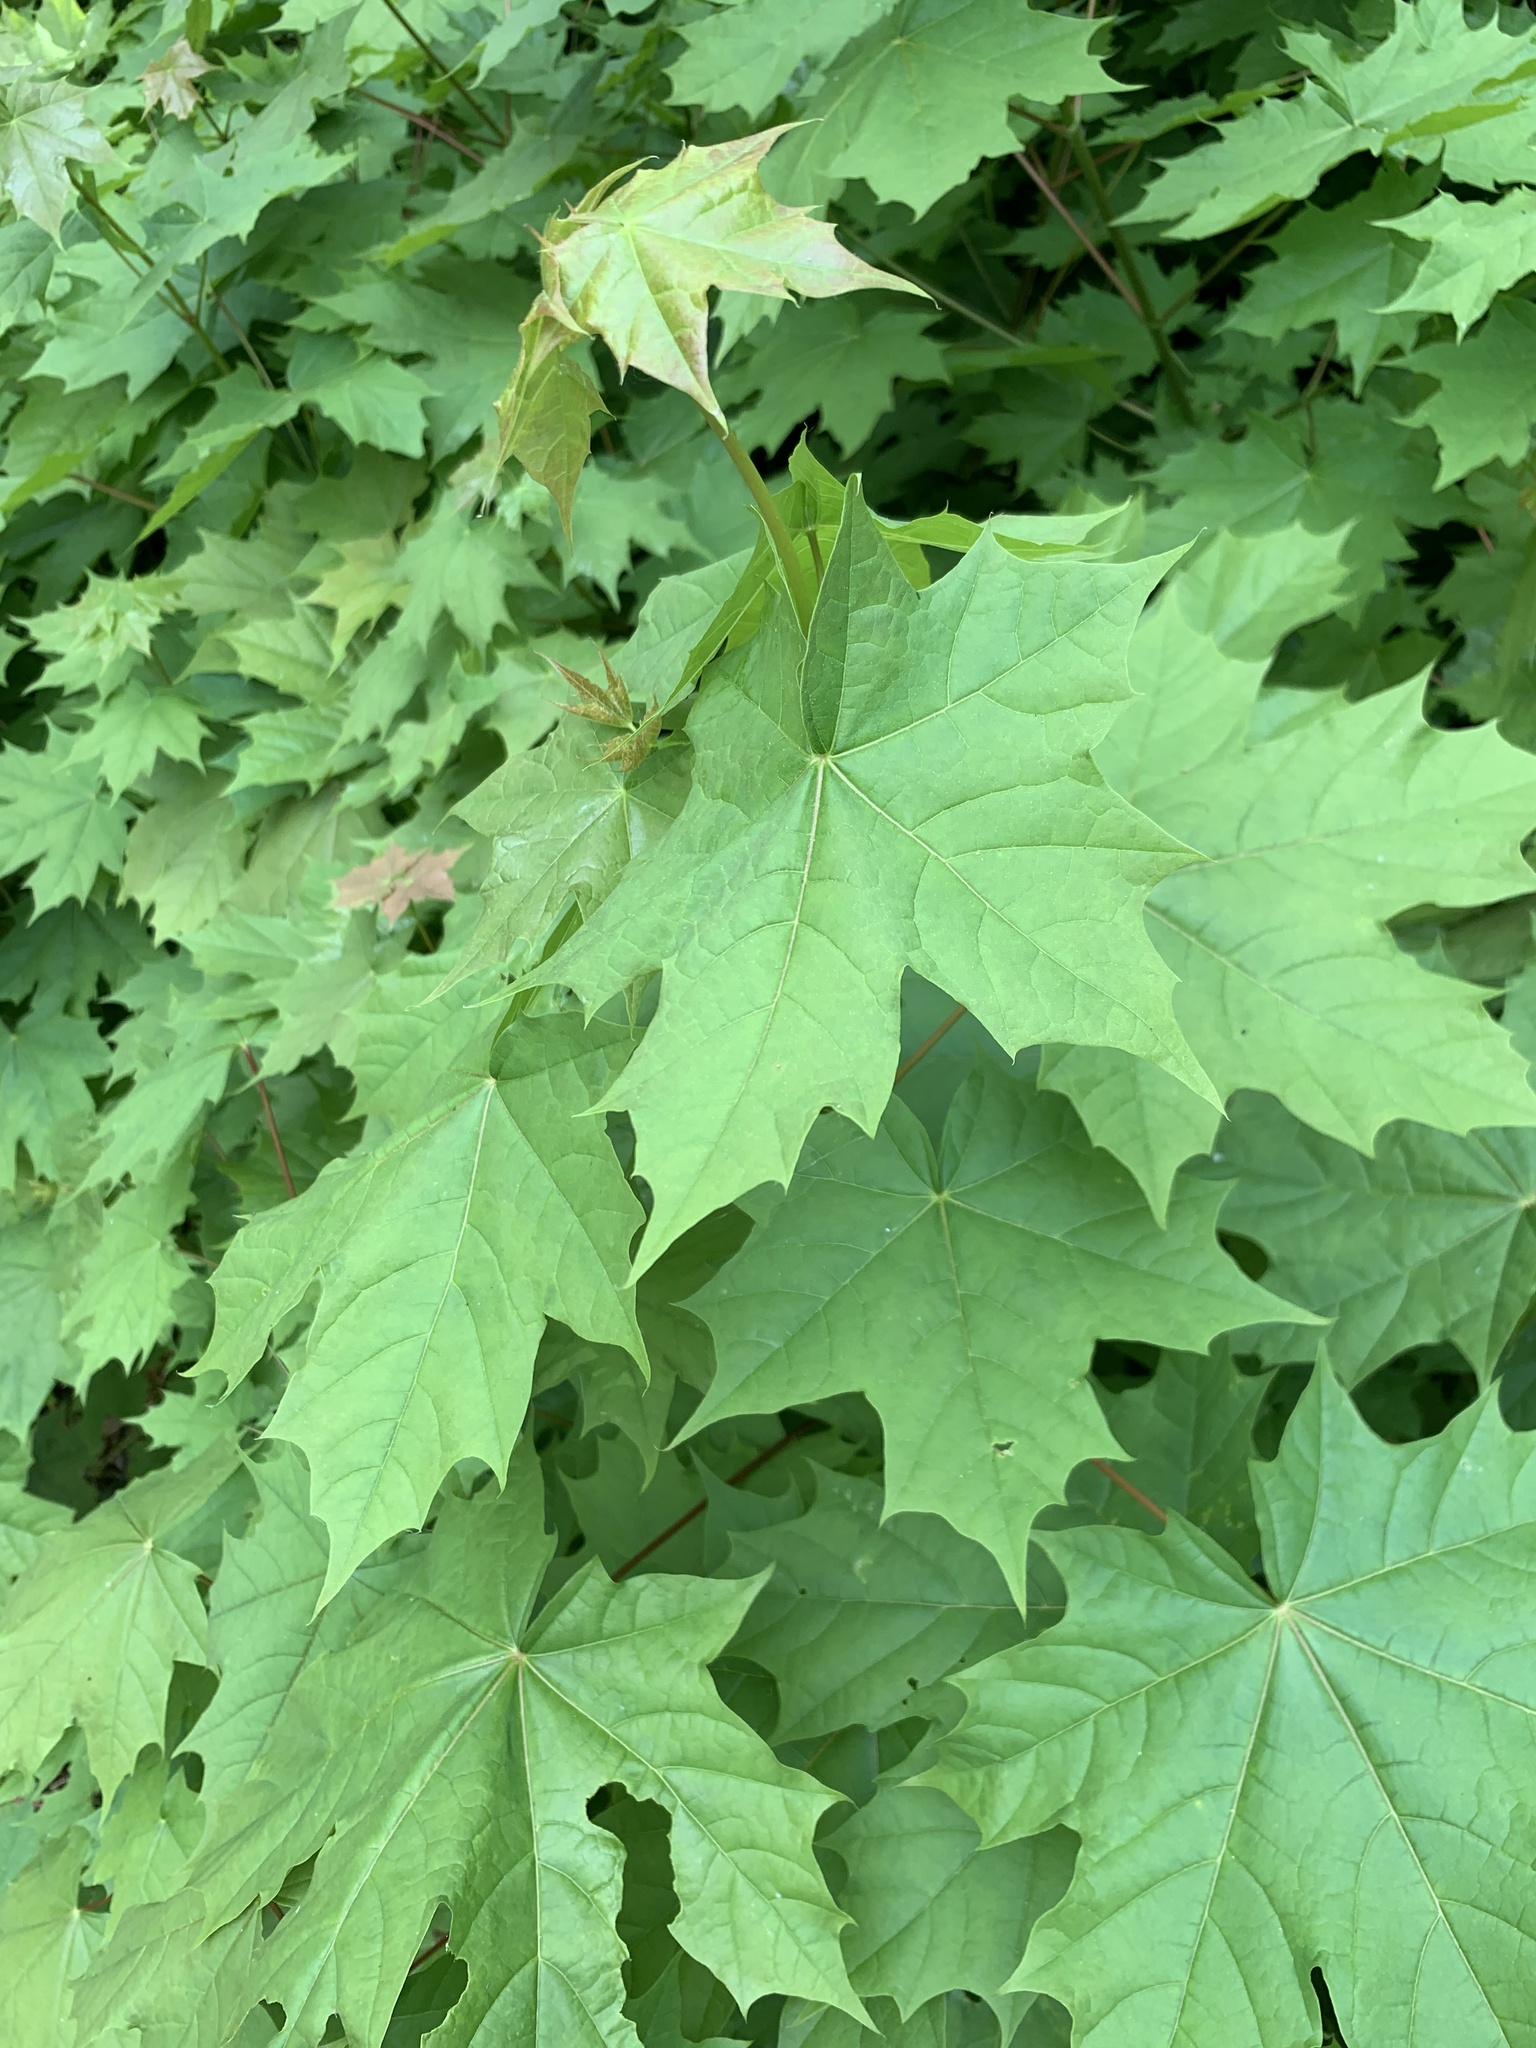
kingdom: Plantae
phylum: Tracheophyta
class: Magnoliopsida
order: Sapindales
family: Sapindaceae
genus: Acer
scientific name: Acer platanoides
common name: Norway maple
